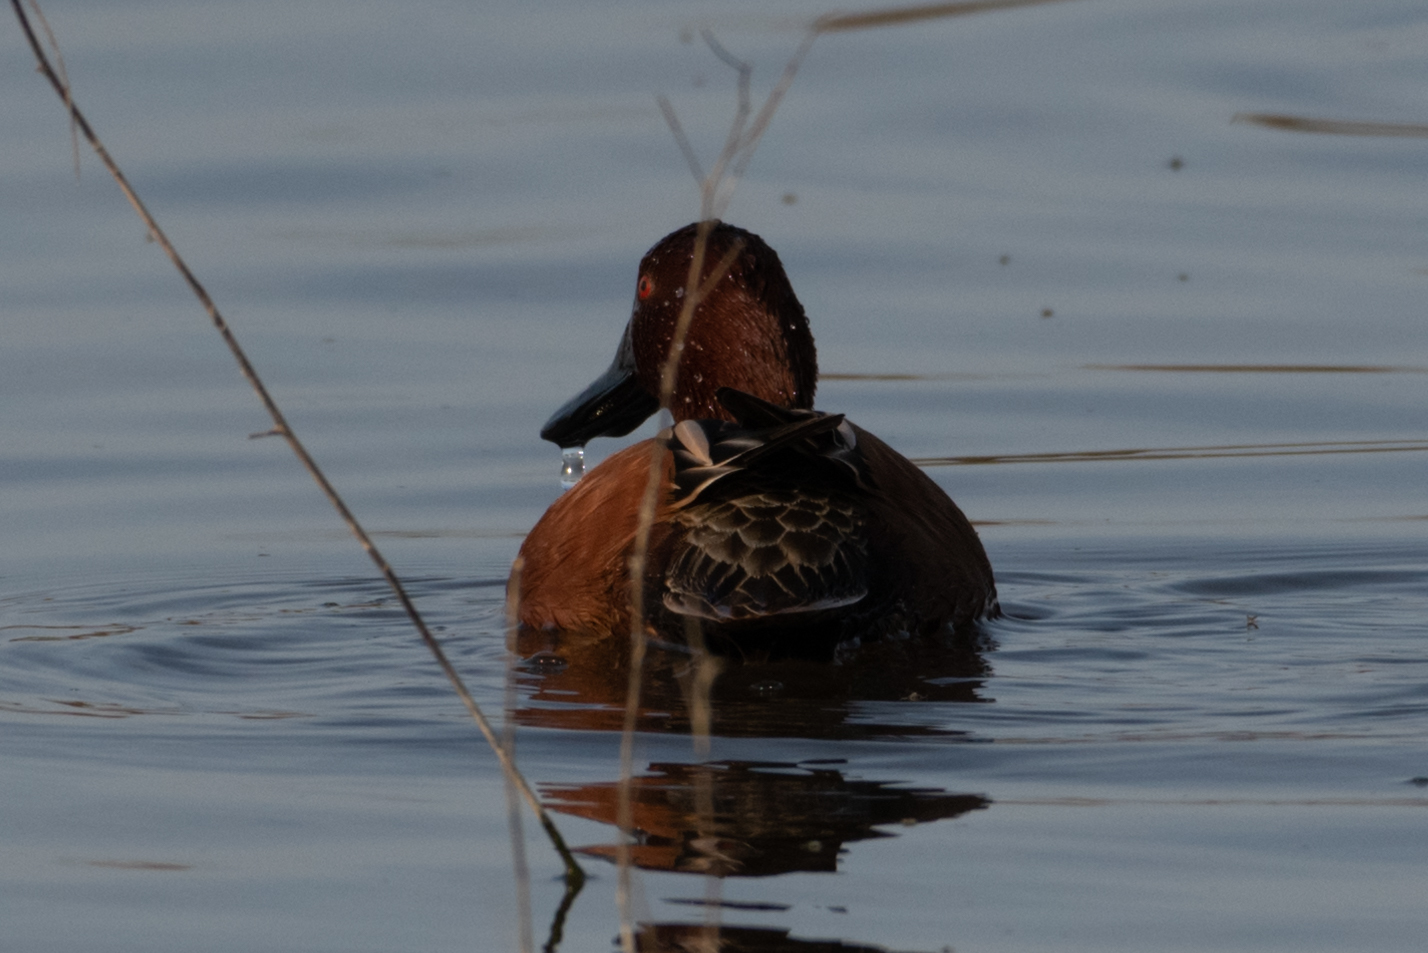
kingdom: Animalia
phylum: Chordata
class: Aves
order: Anseriformes
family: Anatidae
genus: Spatula
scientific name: Spatula cyanoptera
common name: Cinnamon teal
